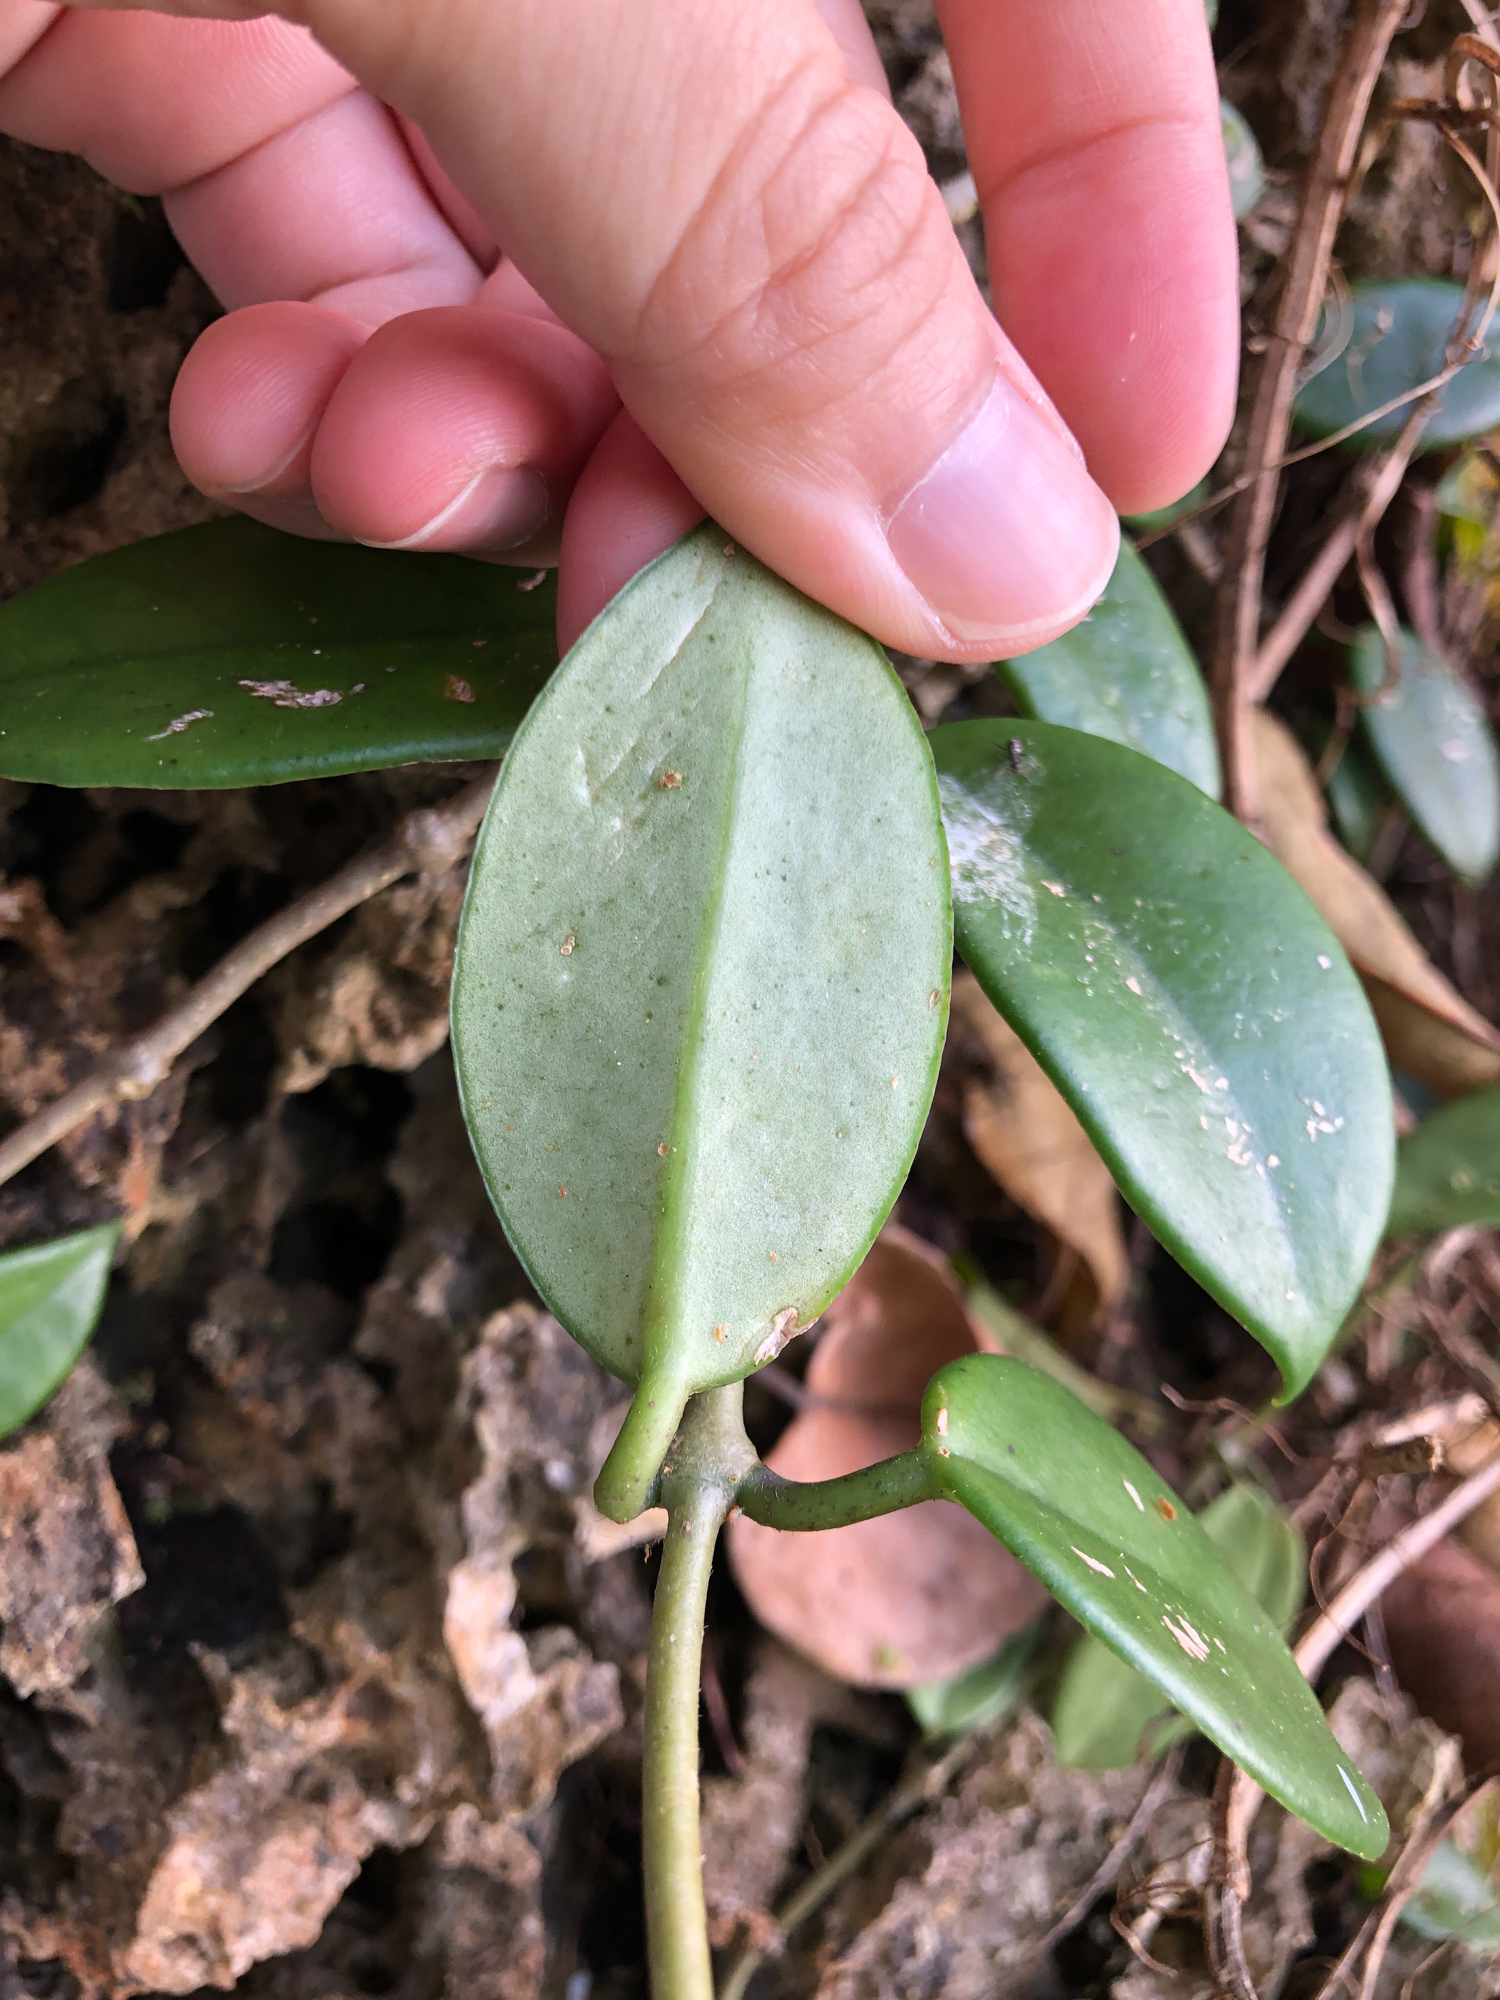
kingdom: Plantae
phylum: Tracheophyta
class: Magnoliopsida
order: Gentianales
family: Apocynaceae
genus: Hoya
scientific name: Hoya carnosa
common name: Honeyplant
